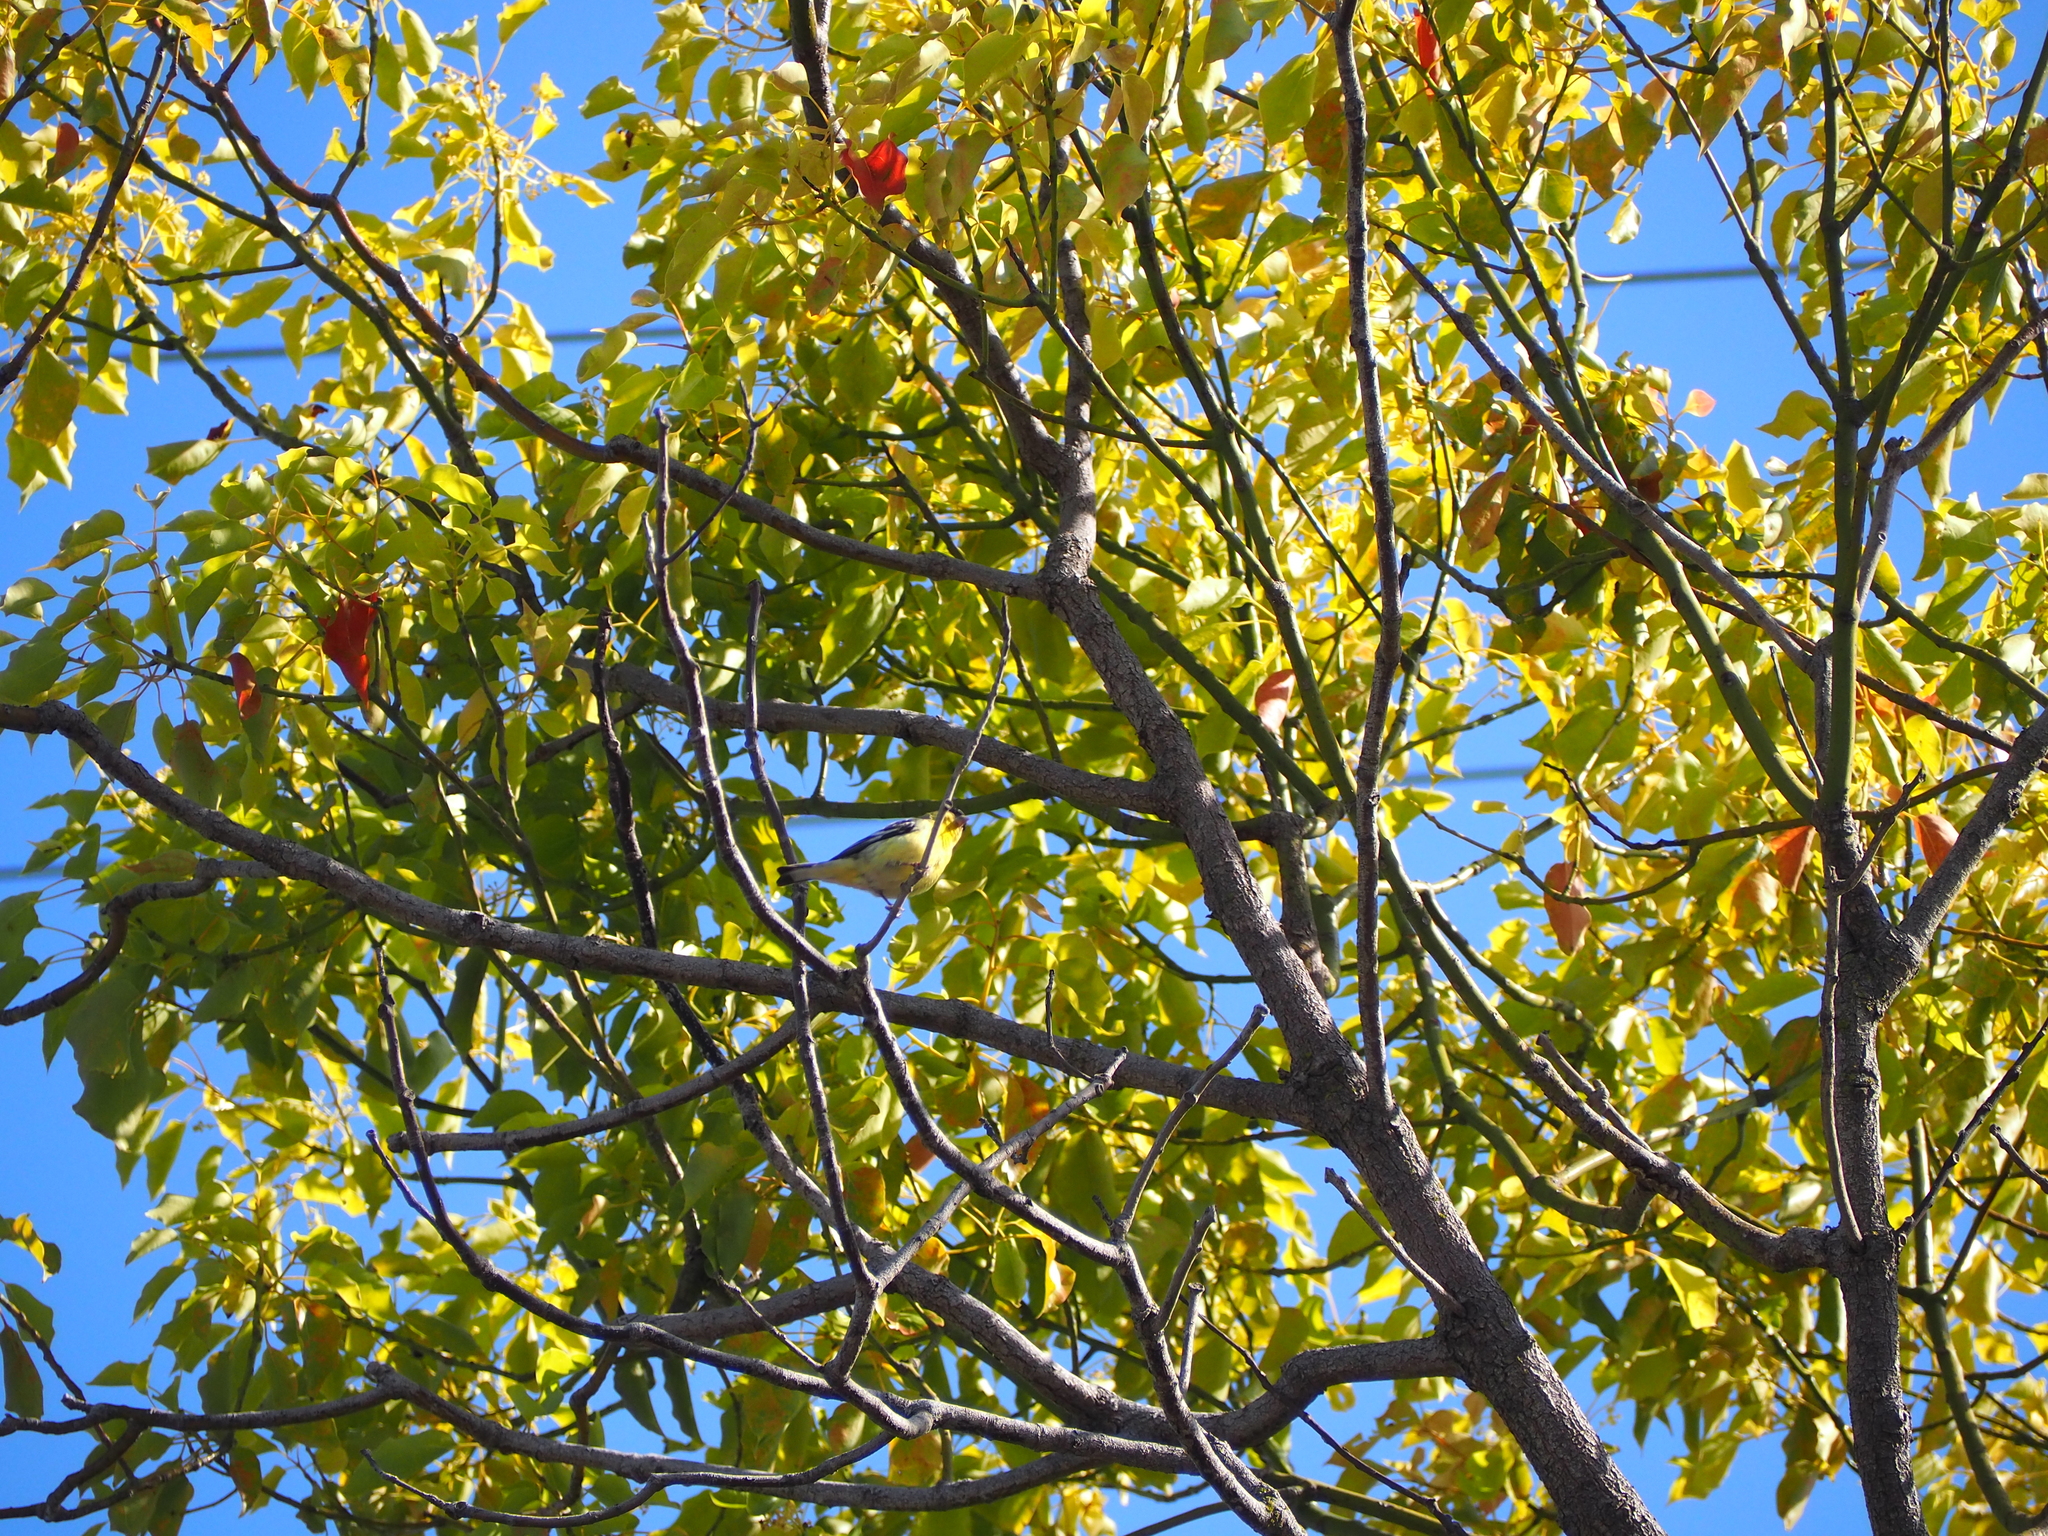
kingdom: Animalia
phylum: Chordata
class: Aves
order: Passeriformes
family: Fringillidae
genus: Spinus
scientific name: Spinus psaltria
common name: Lesser goldfinch
